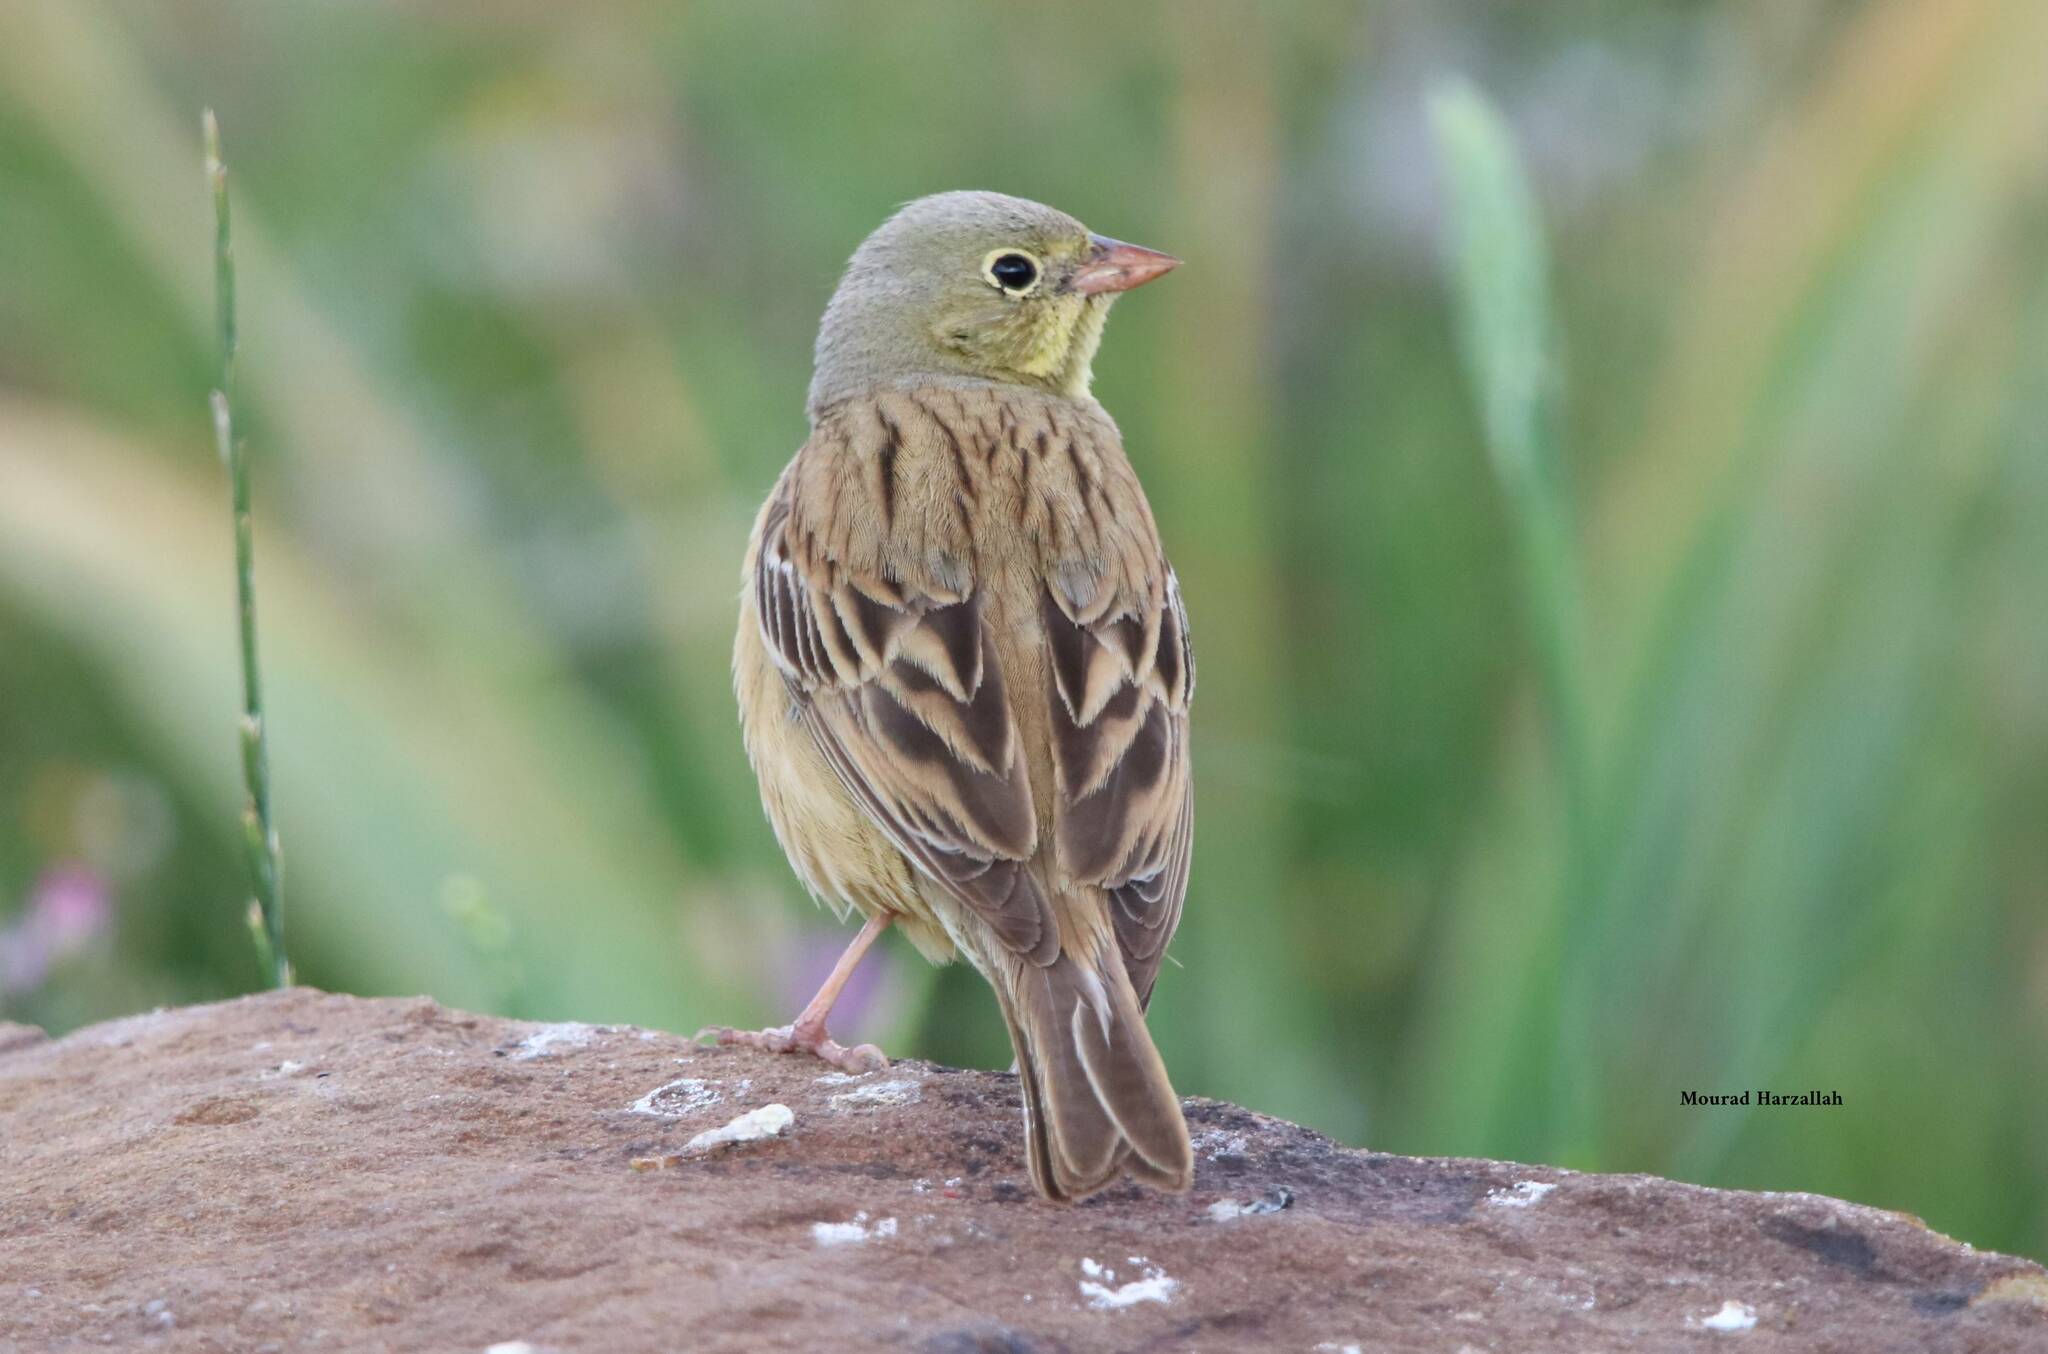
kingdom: Animalia
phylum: Chordata
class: Aves
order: Passeriformes
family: Emberizidae
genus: Emberiza
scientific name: Emberiza hortulana
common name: Ortolan bunting
